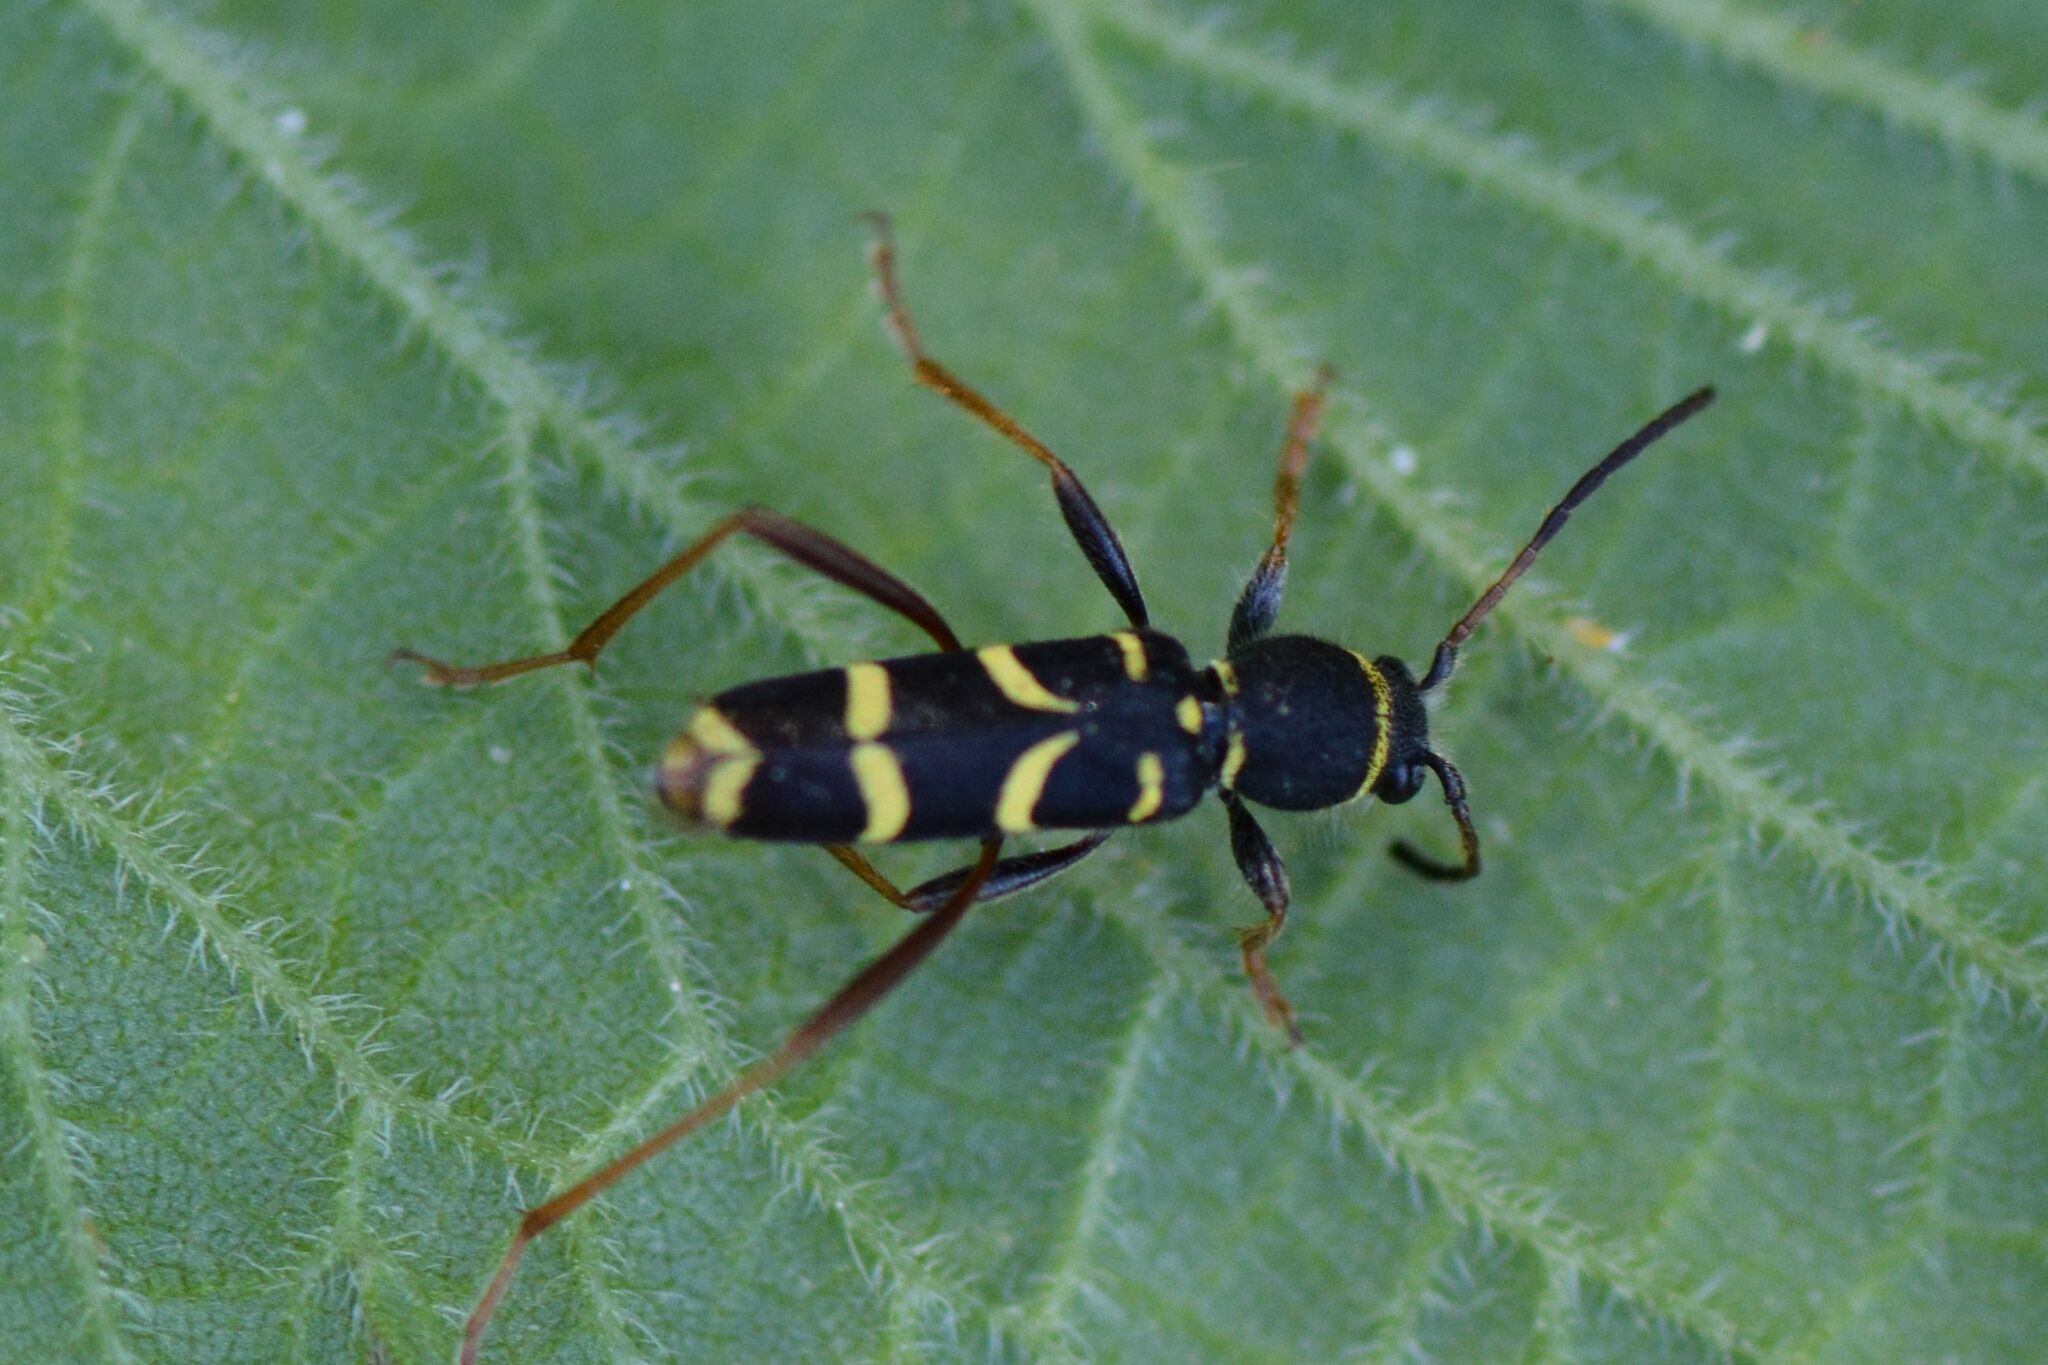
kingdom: Animalia
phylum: Arthropoda
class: Insecta
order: Coleoptera
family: Cerambycidae
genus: Clytus
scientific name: Clytus arietis
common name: Wasp beetle
